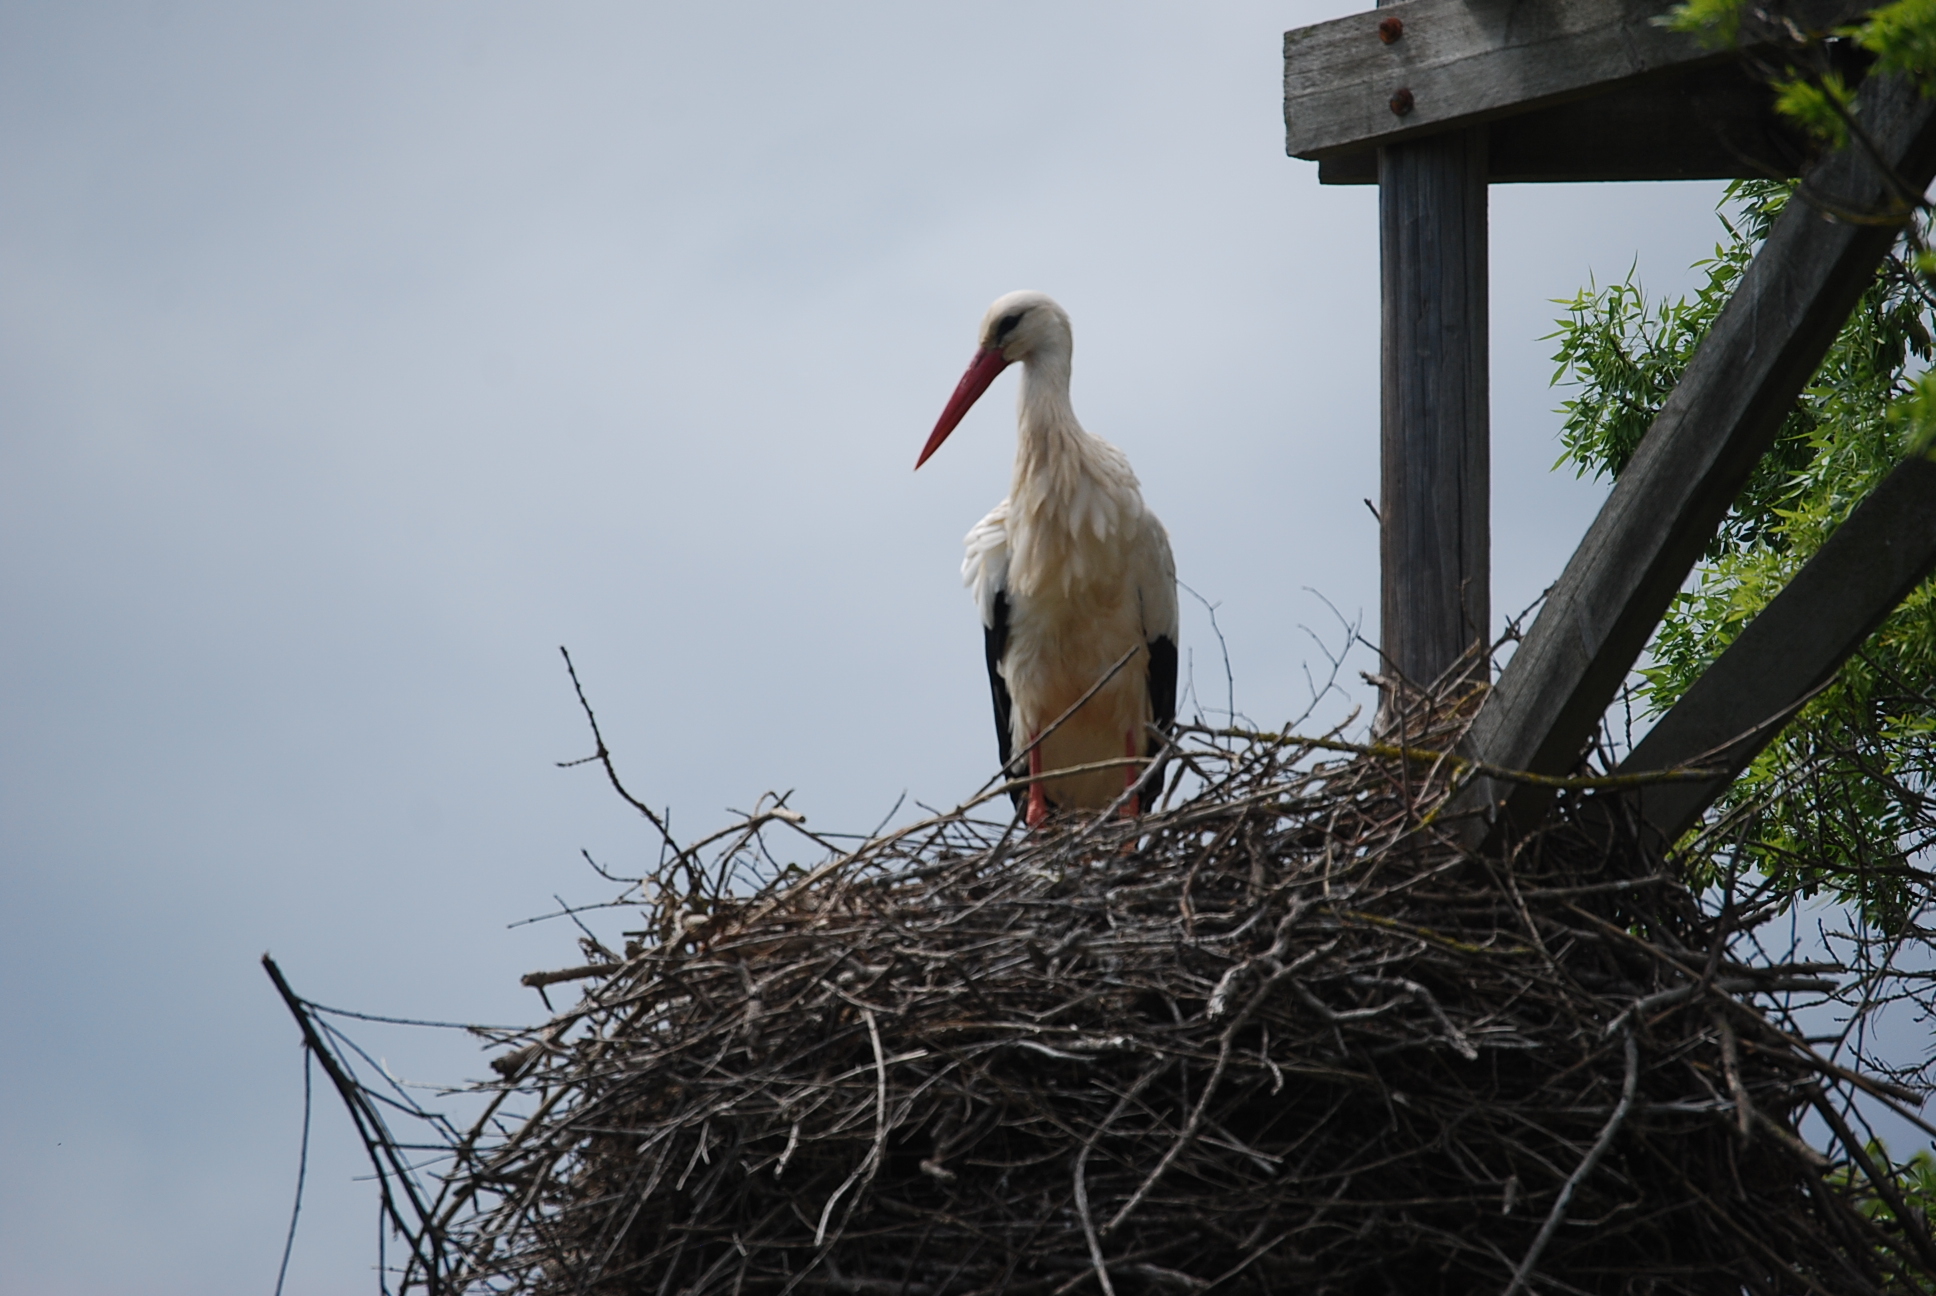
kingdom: Animalia
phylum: Chordata
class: Aves
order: Ciconiiformes
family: Ciconiidae
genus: Ciconia
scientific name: Ciconia ciconia
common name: White stork
